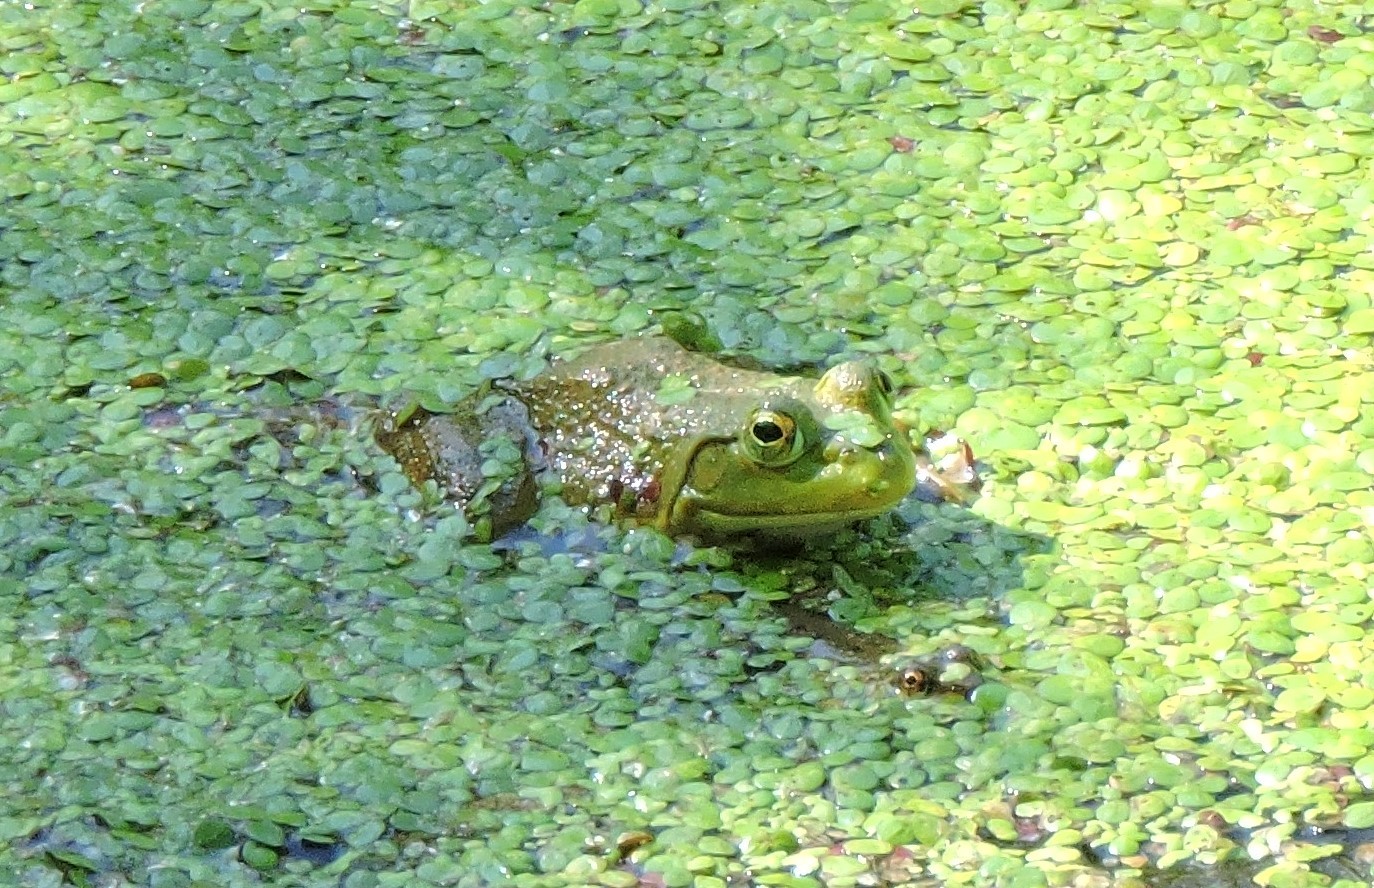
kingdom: Animalia
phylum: Chordata
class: Amphibia
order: Anura
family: Ranidae
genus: Lithobates
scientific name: Lithobates catesbeianus
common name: American bullfrog
